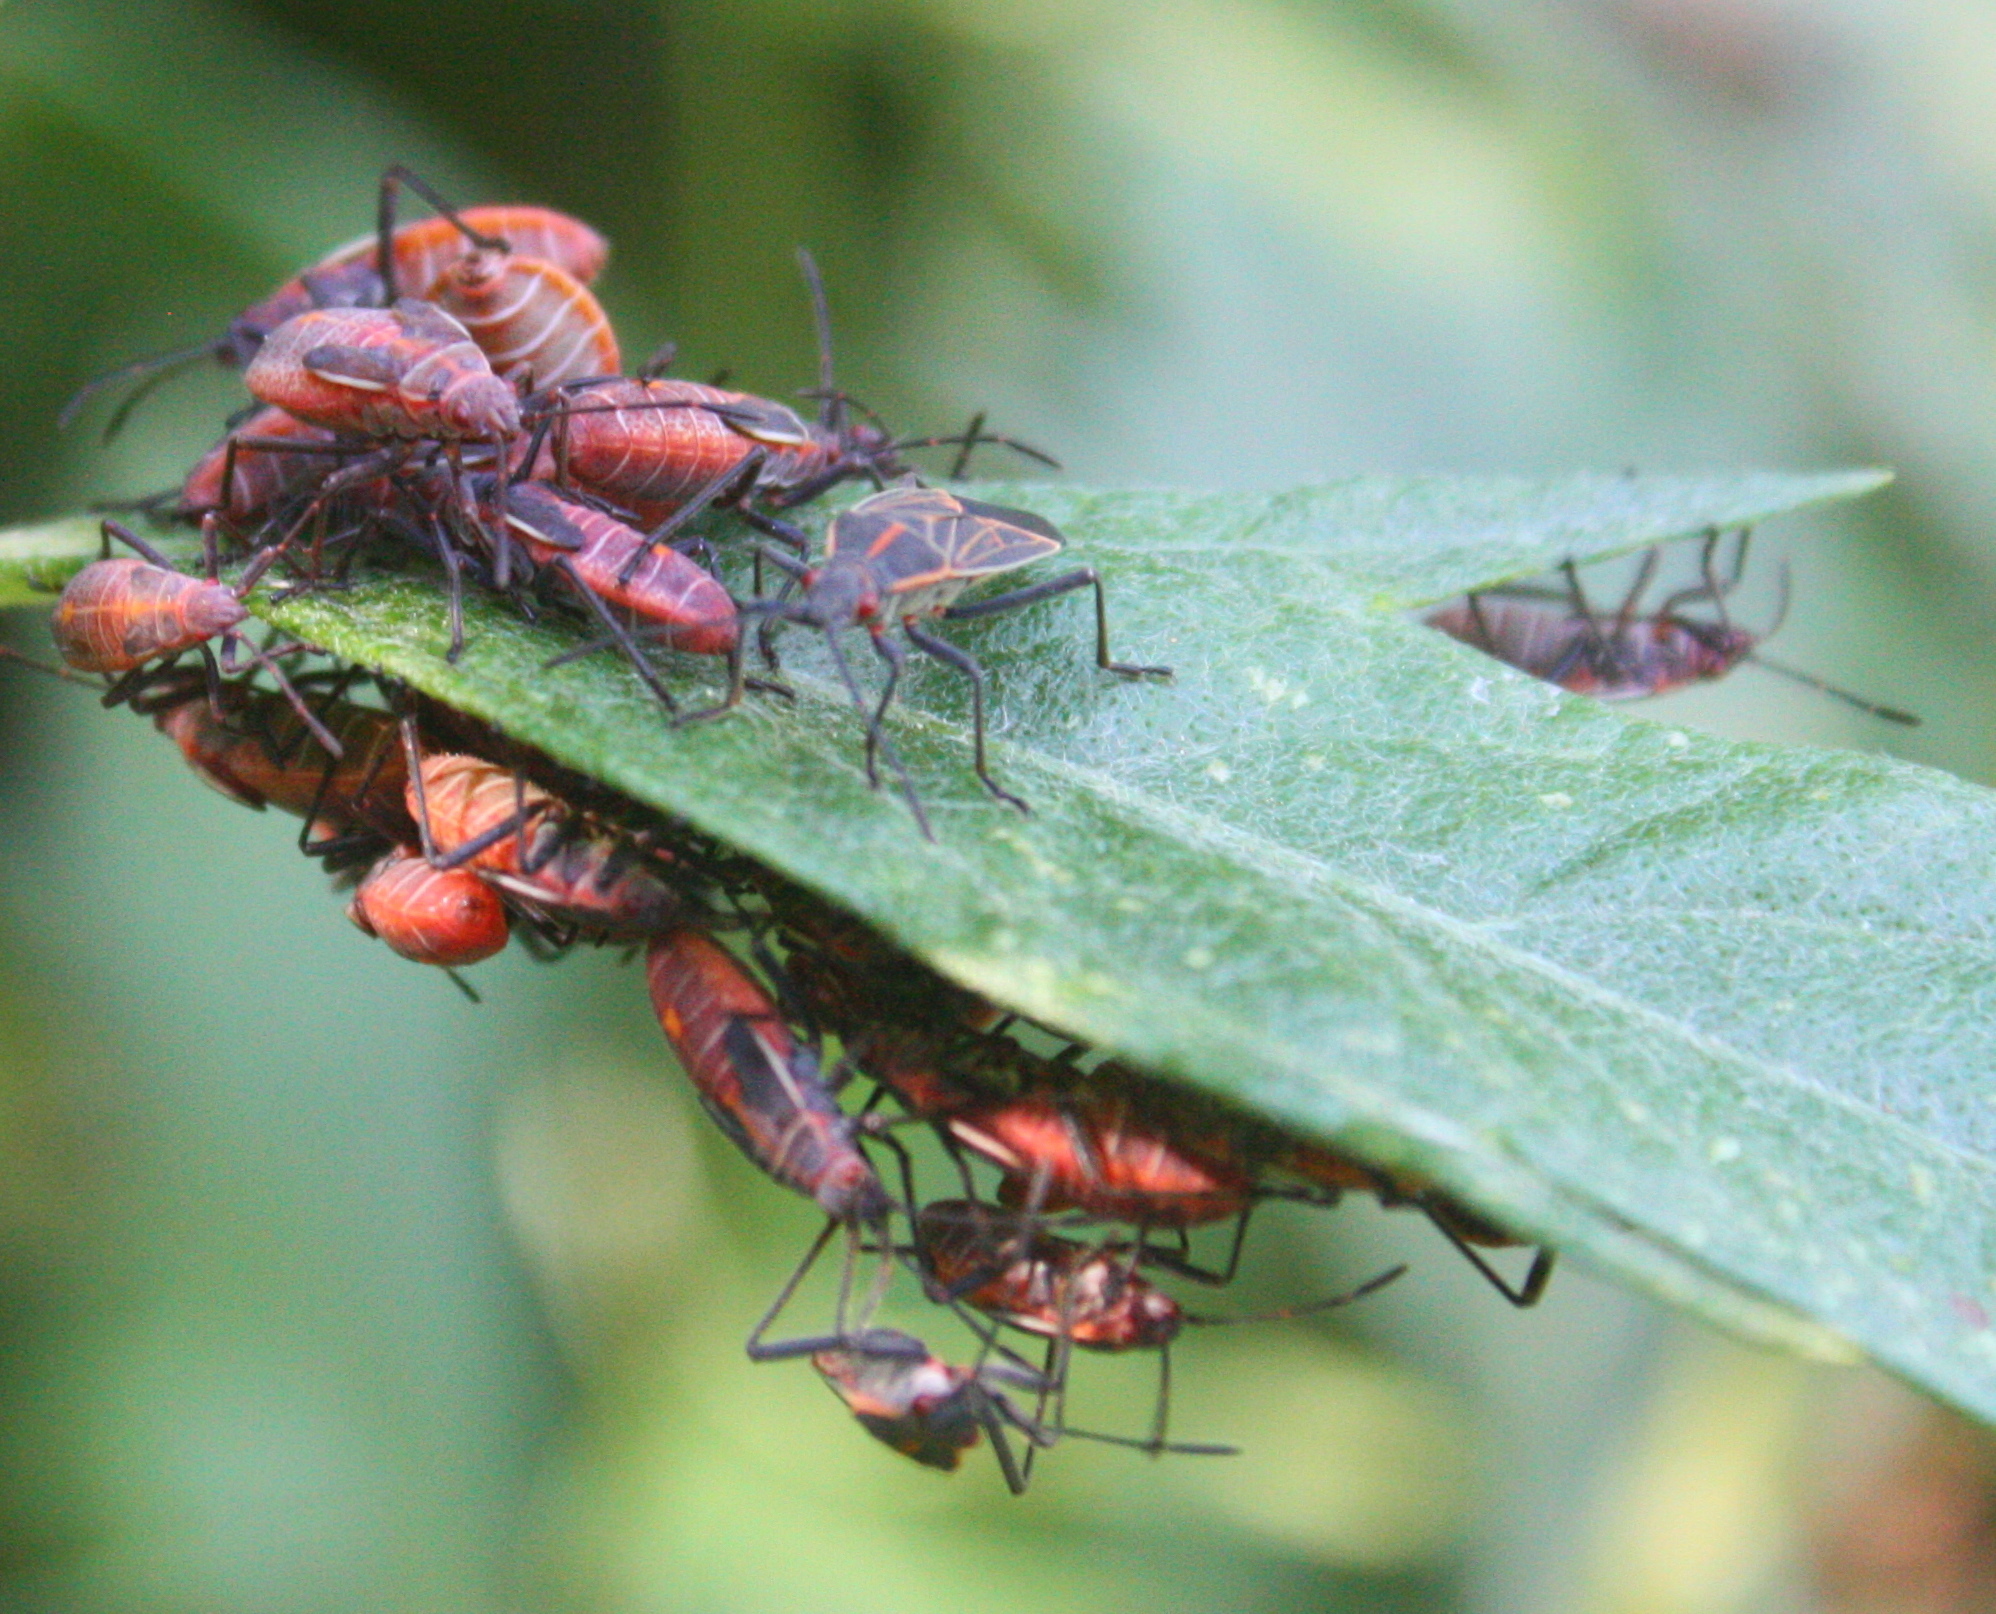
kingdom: Animalia
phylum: Arthropoda
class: Insecta
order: Hemiptera
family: Rhopalidae
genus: Boisea
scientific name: Boisea rubrolineata
